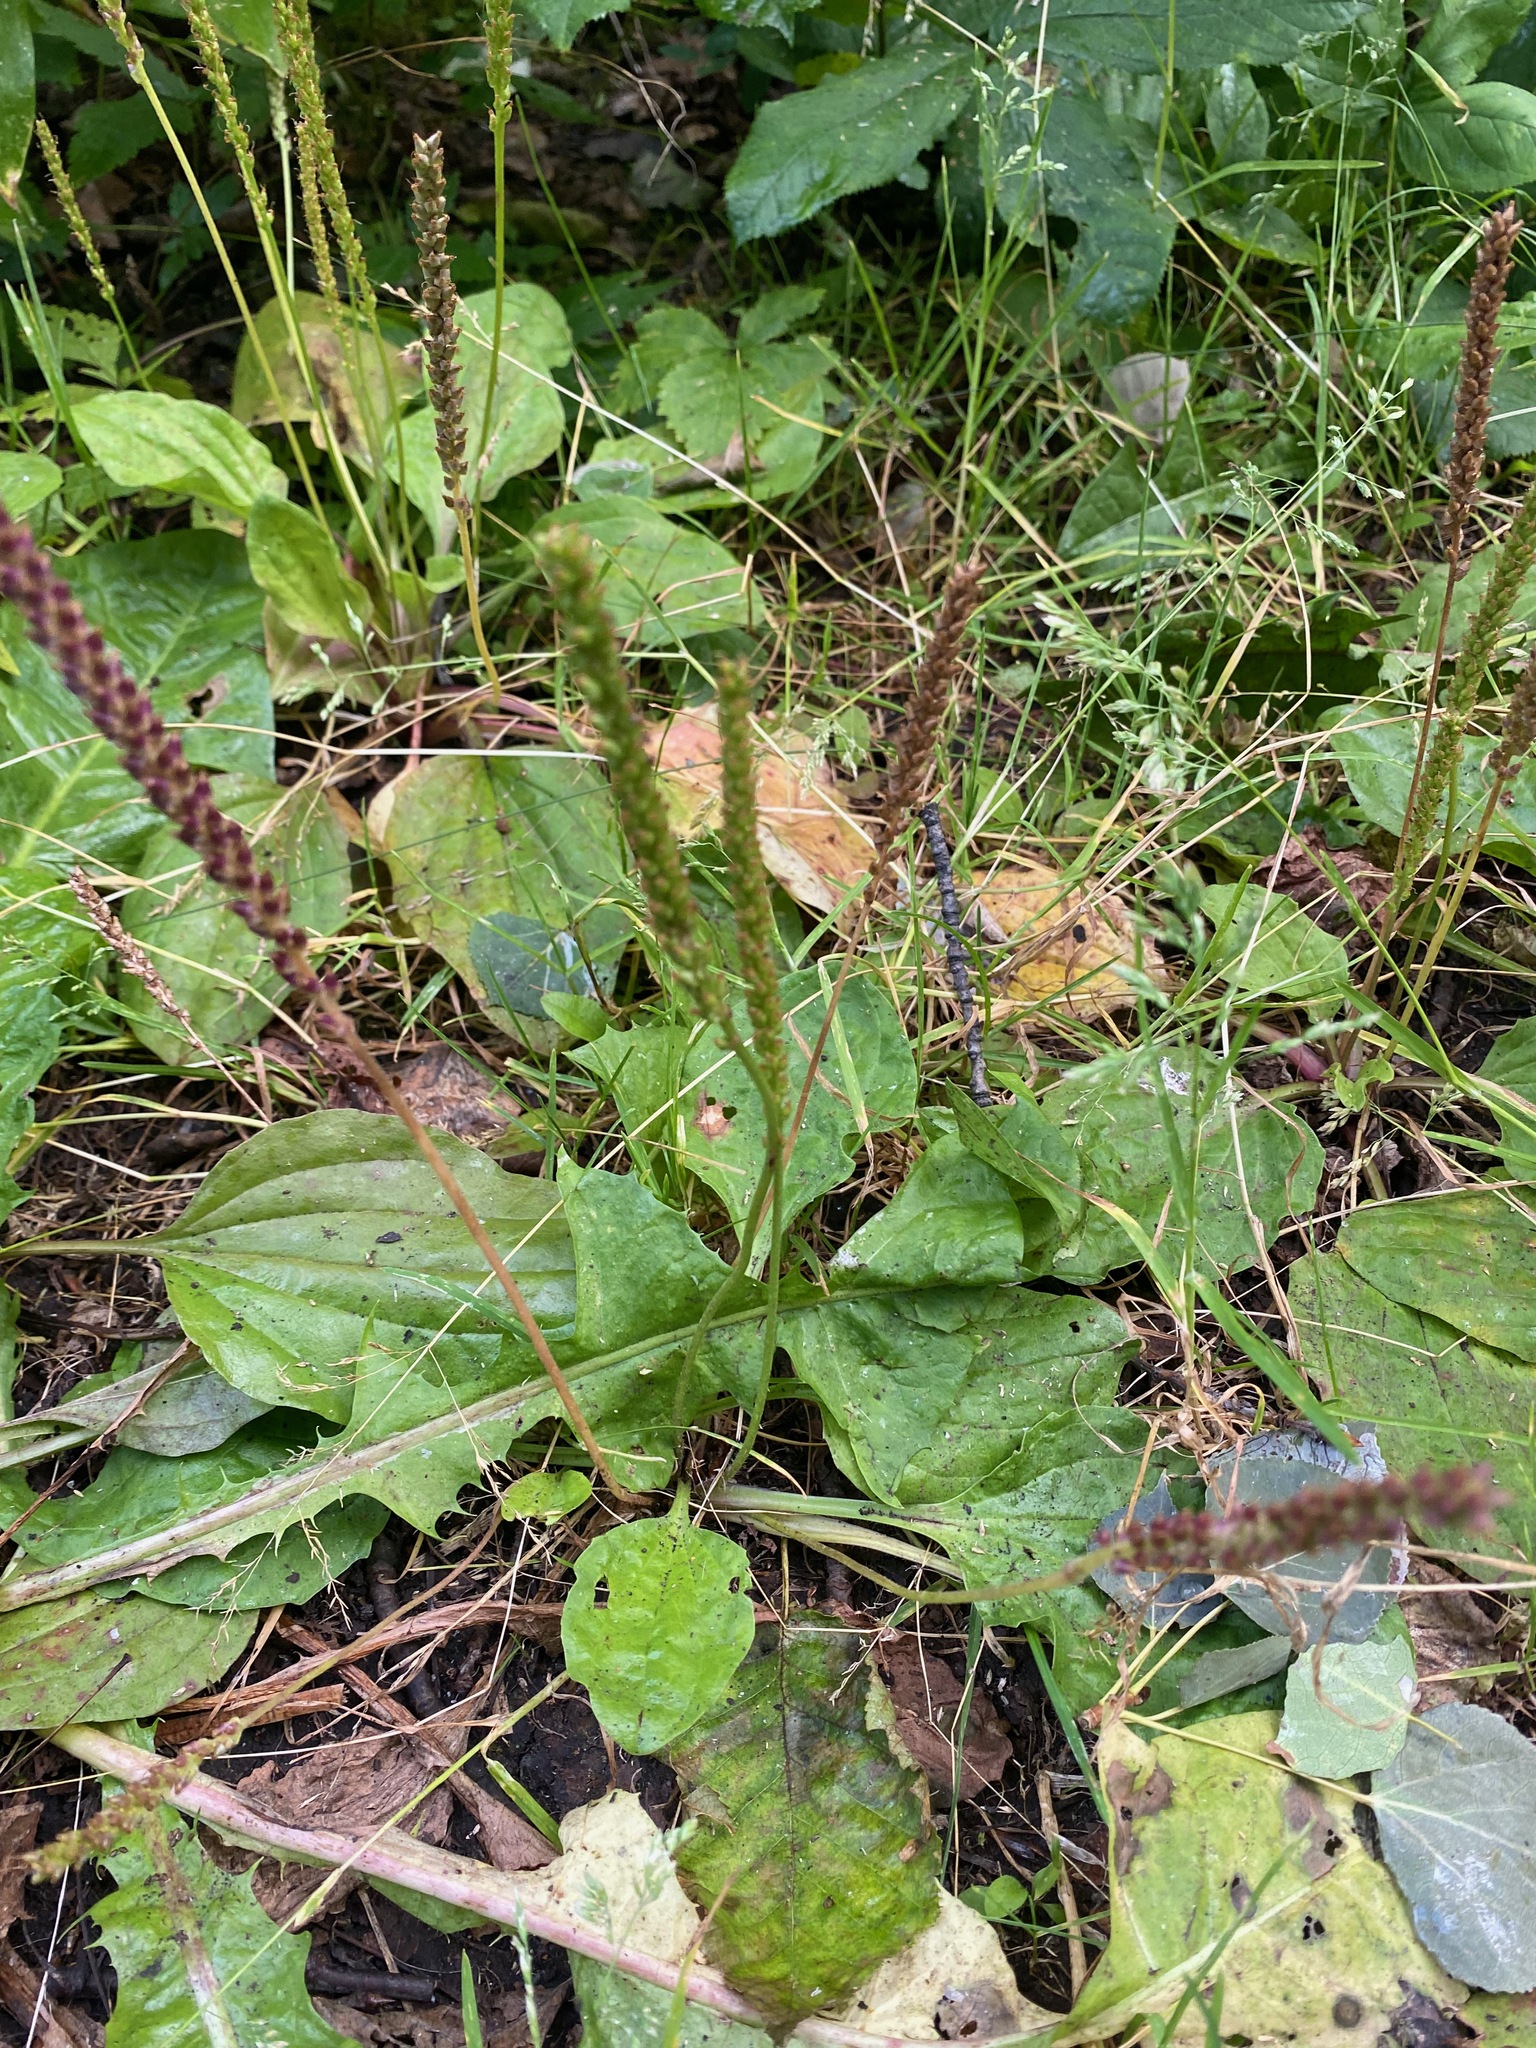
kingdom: Plantae
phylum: Tracheophyta
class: Magnoliopsida
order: Lamiales
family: Plantaginaceae
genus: Plantago
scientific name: Plantago major
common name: Common plantain
